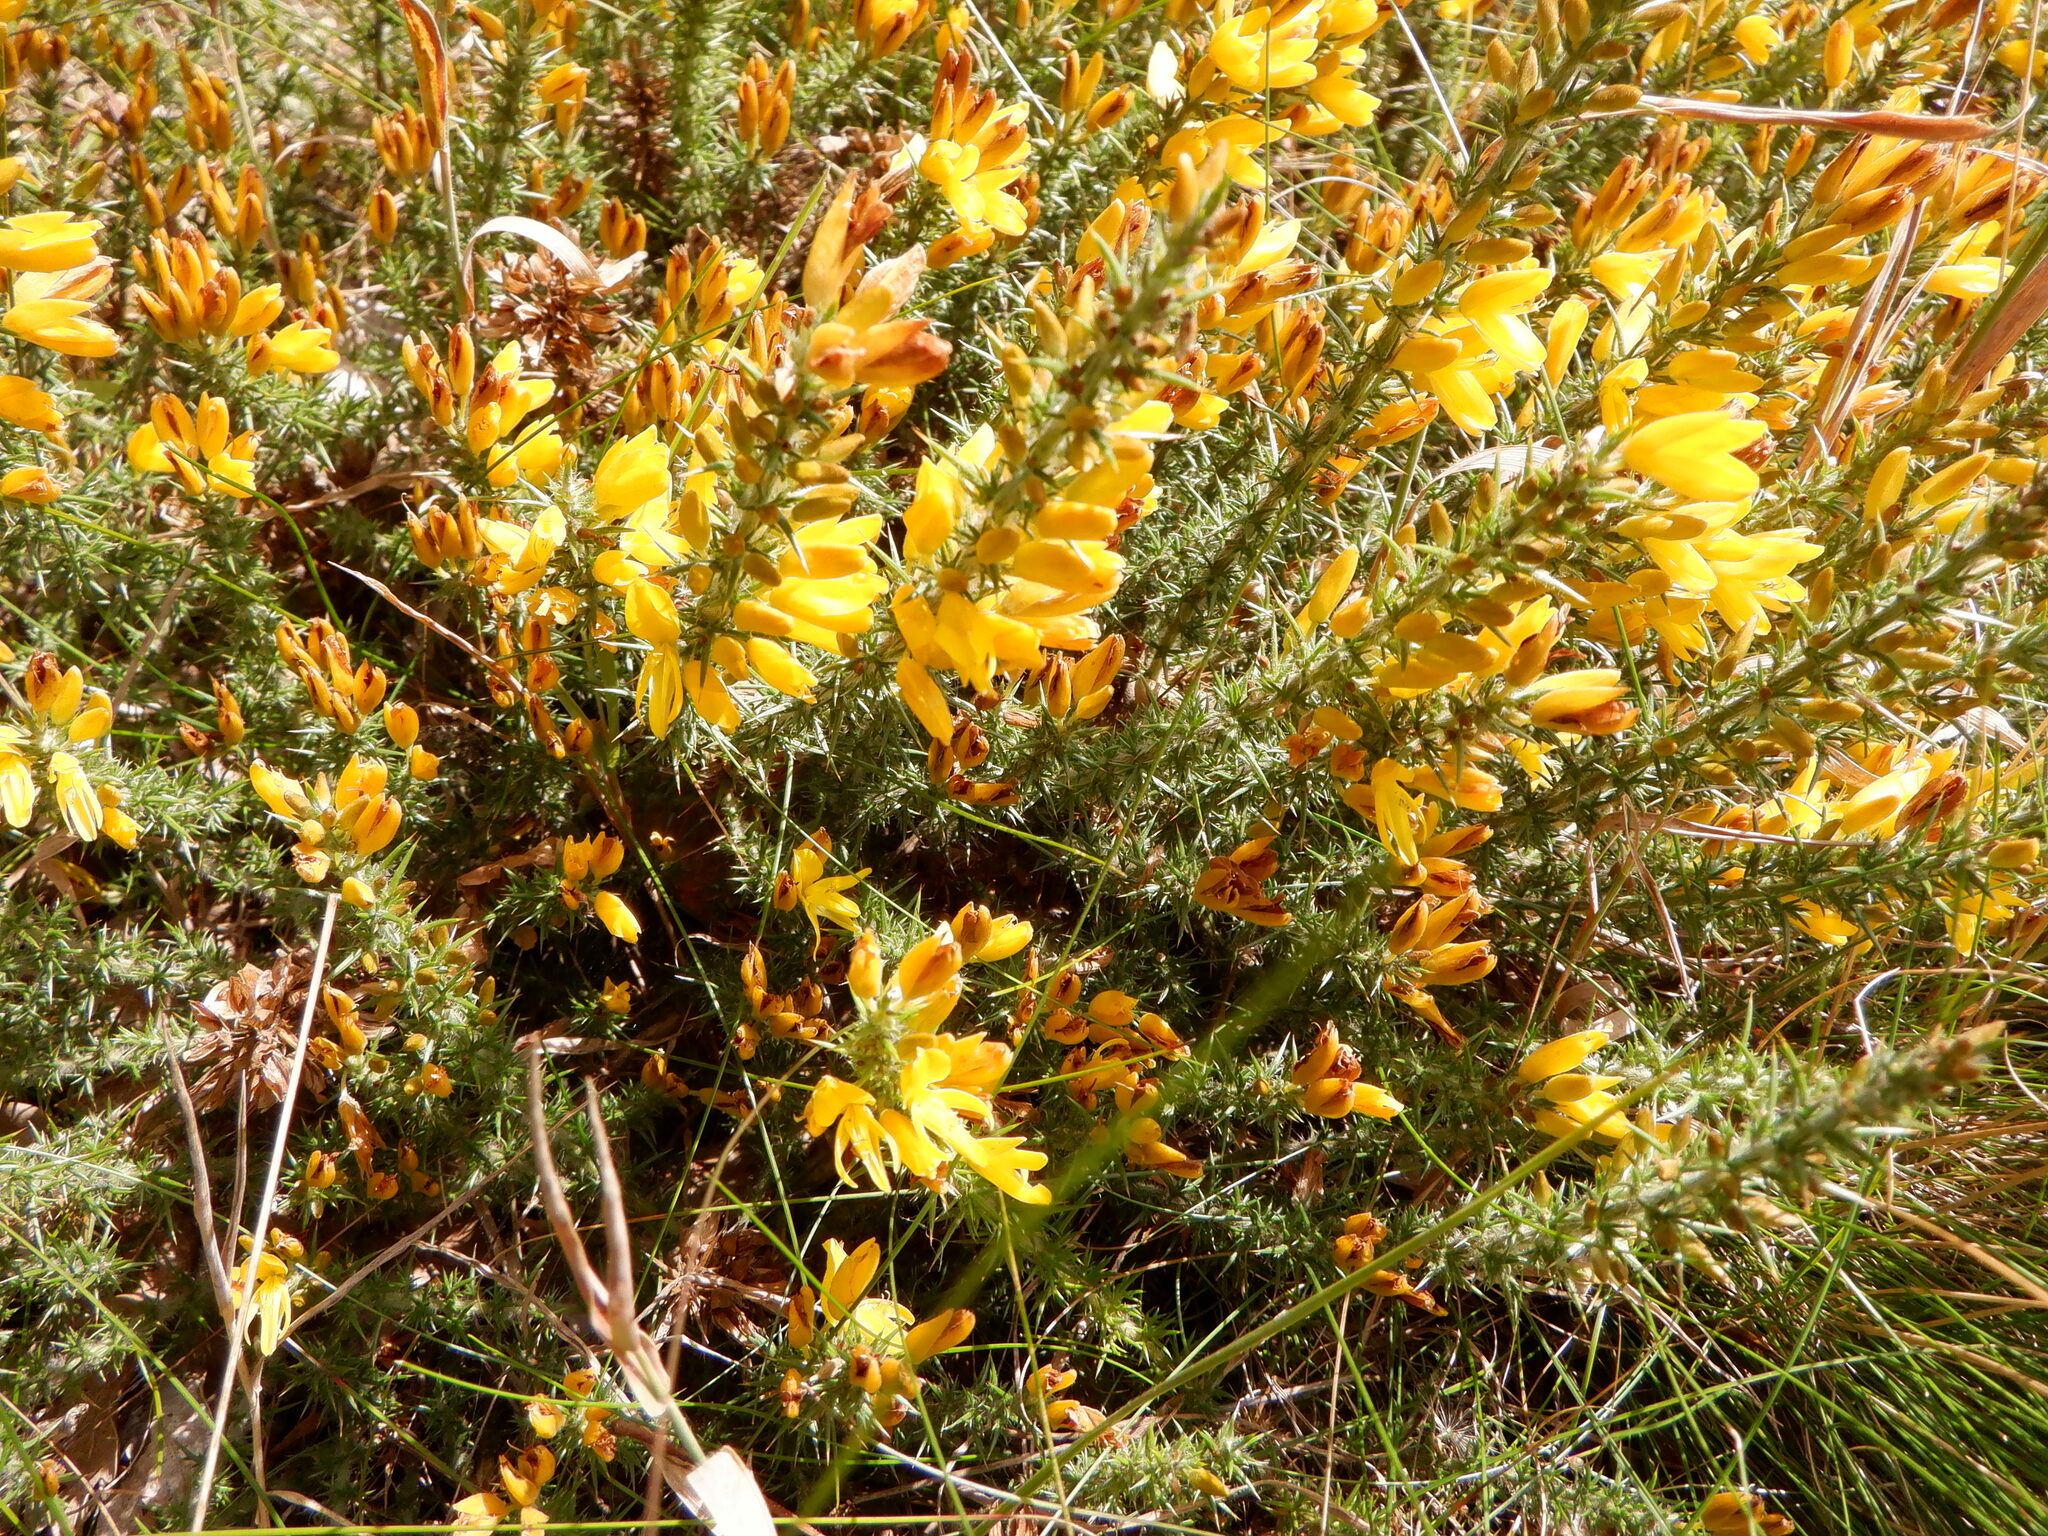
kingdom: Plantae
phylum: Tracheophyta
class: Magnoliopsida
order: Fabales
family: Fabaceae
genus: Ulex
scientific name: Ulex europaeus
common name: Common gorse
